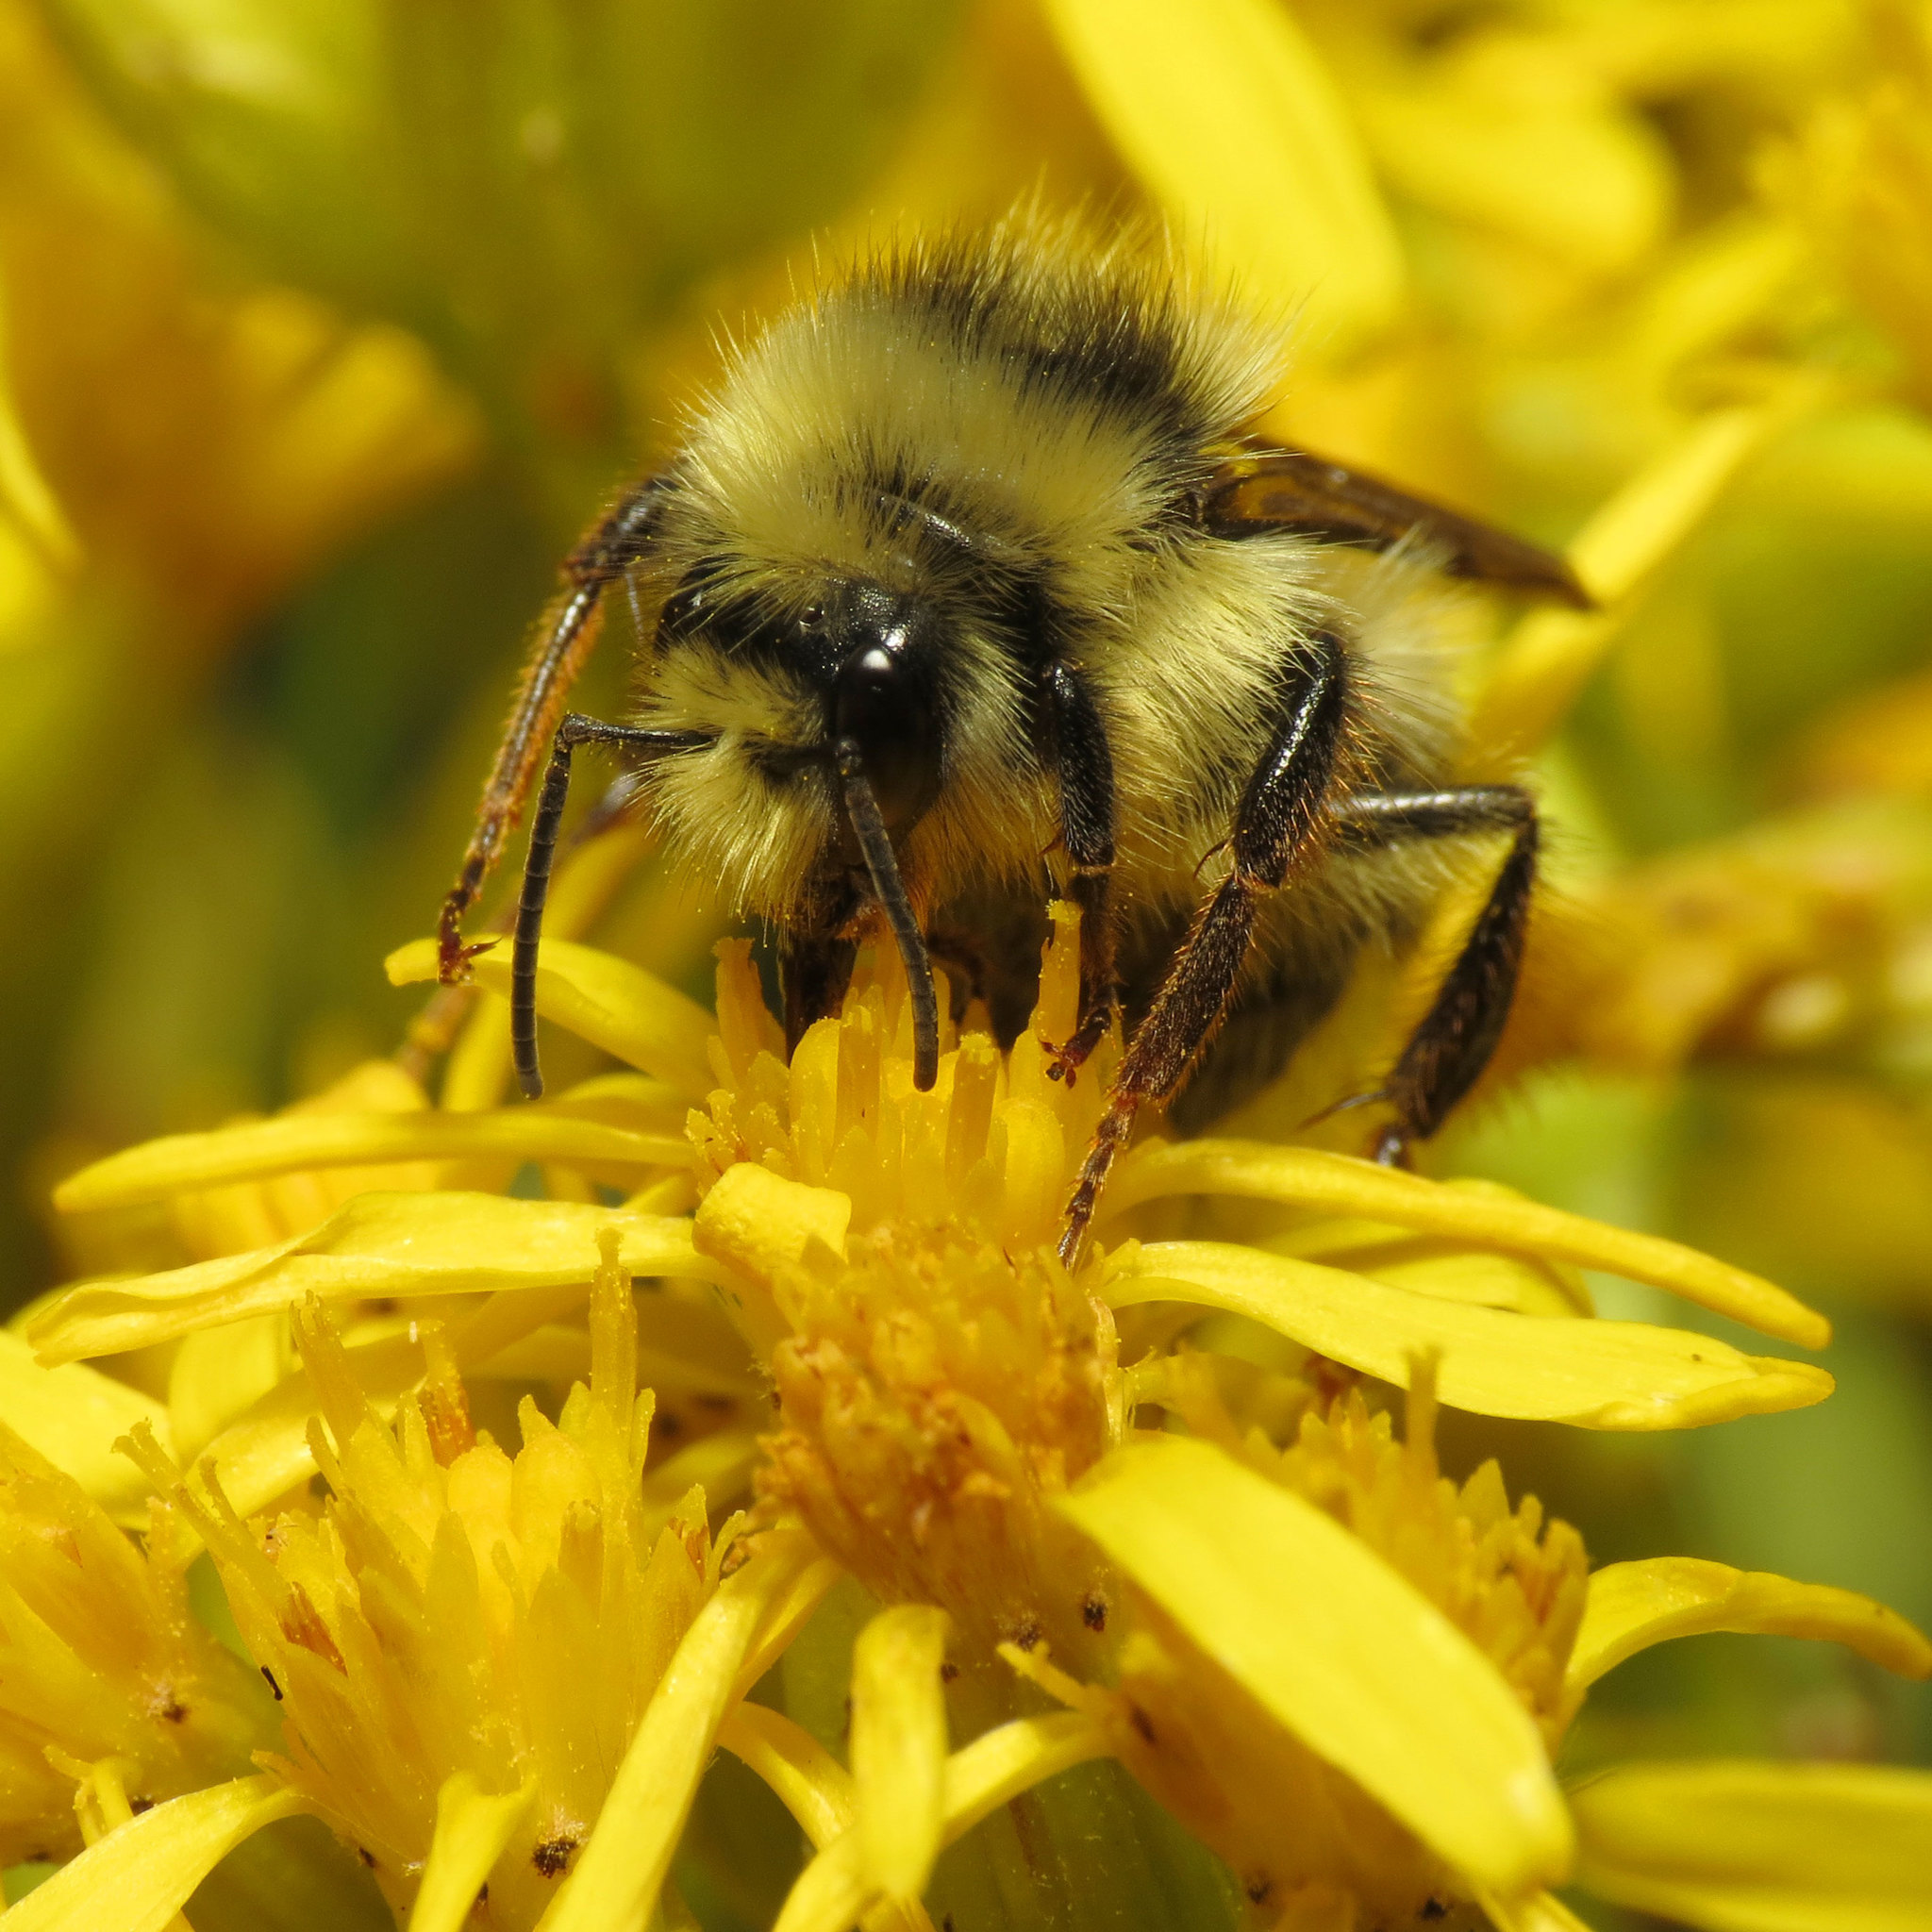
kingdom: Animalia
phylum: Arthropoda
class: Insecta
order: Hymenoptera
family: Apidae
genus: Bombus
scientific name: Bombus
